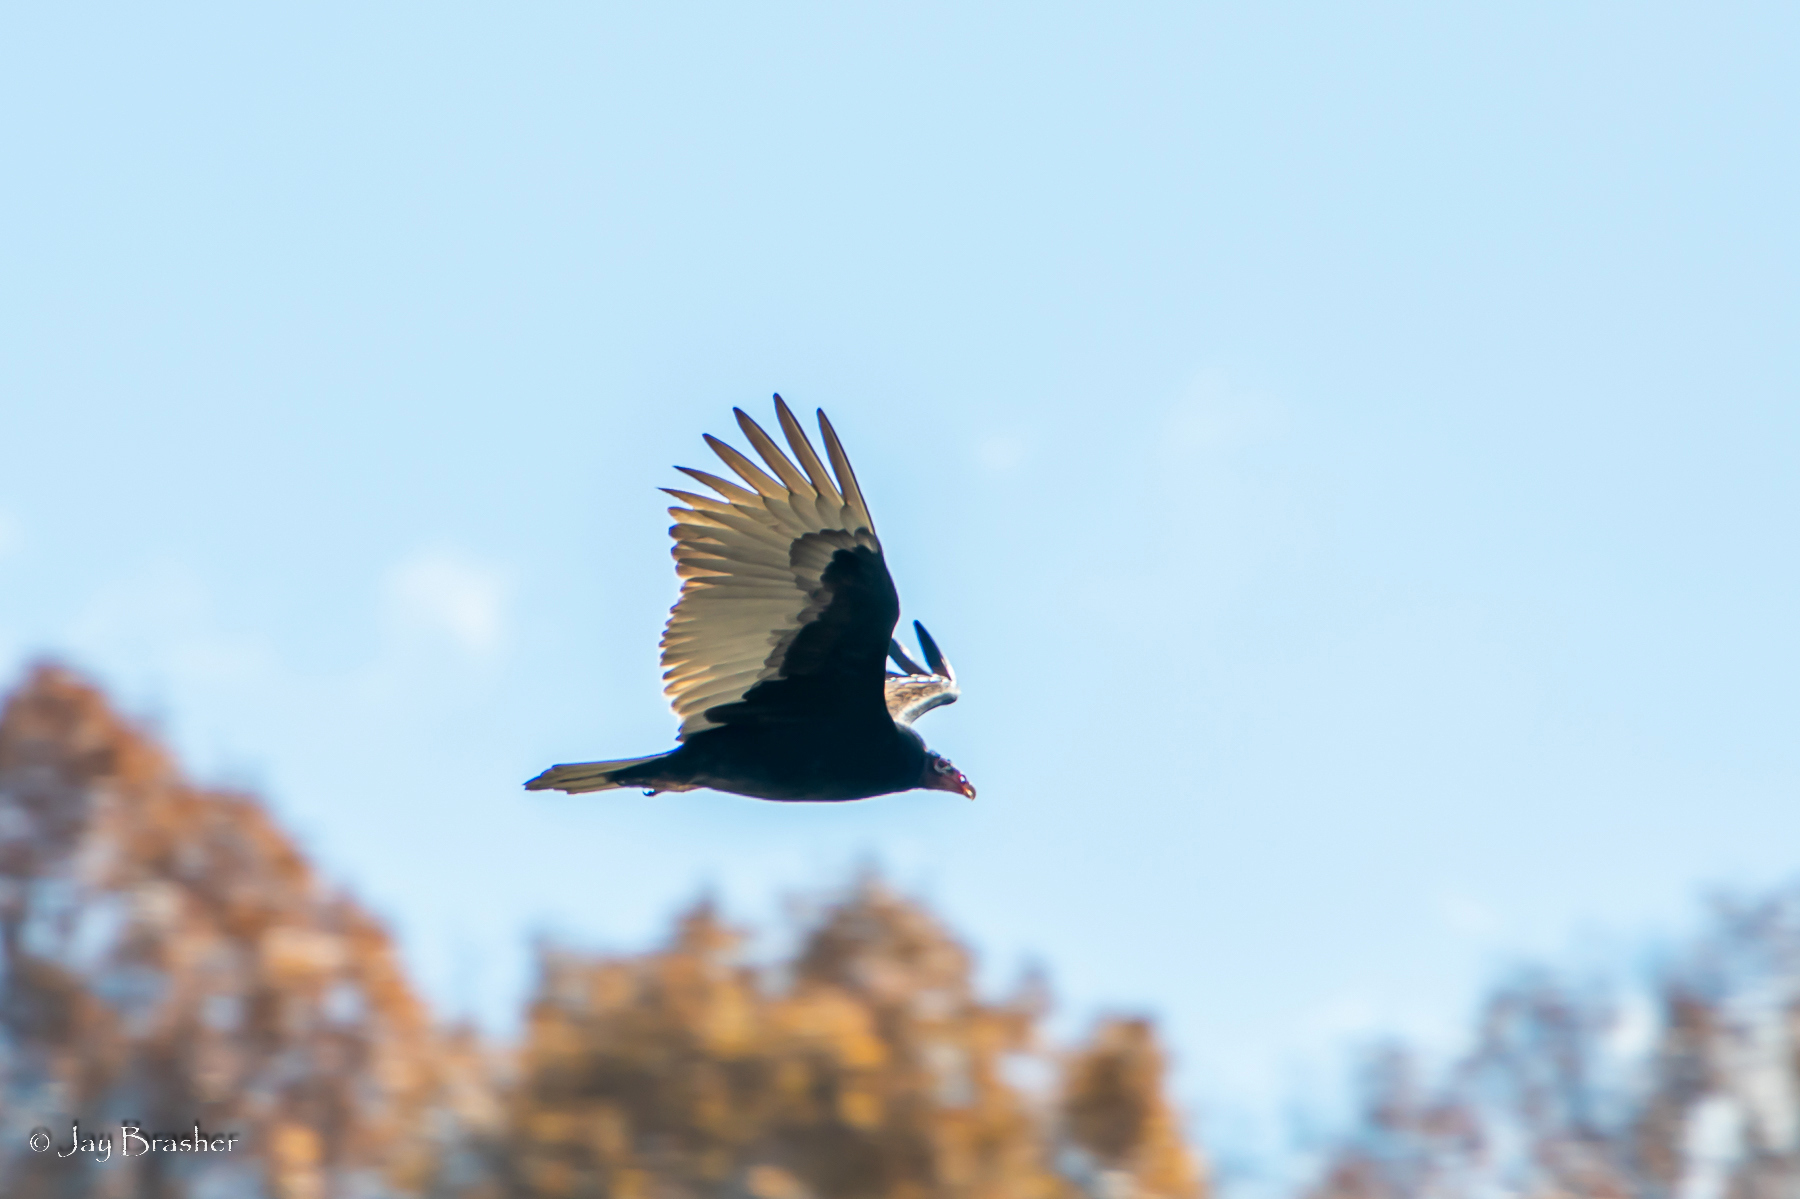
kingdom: Animalia
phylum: Chordata
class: Aves
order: Accipitriformes
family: Cathartidae
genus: Cathartes
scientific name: Cathartes aura
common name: Turkey vulture
